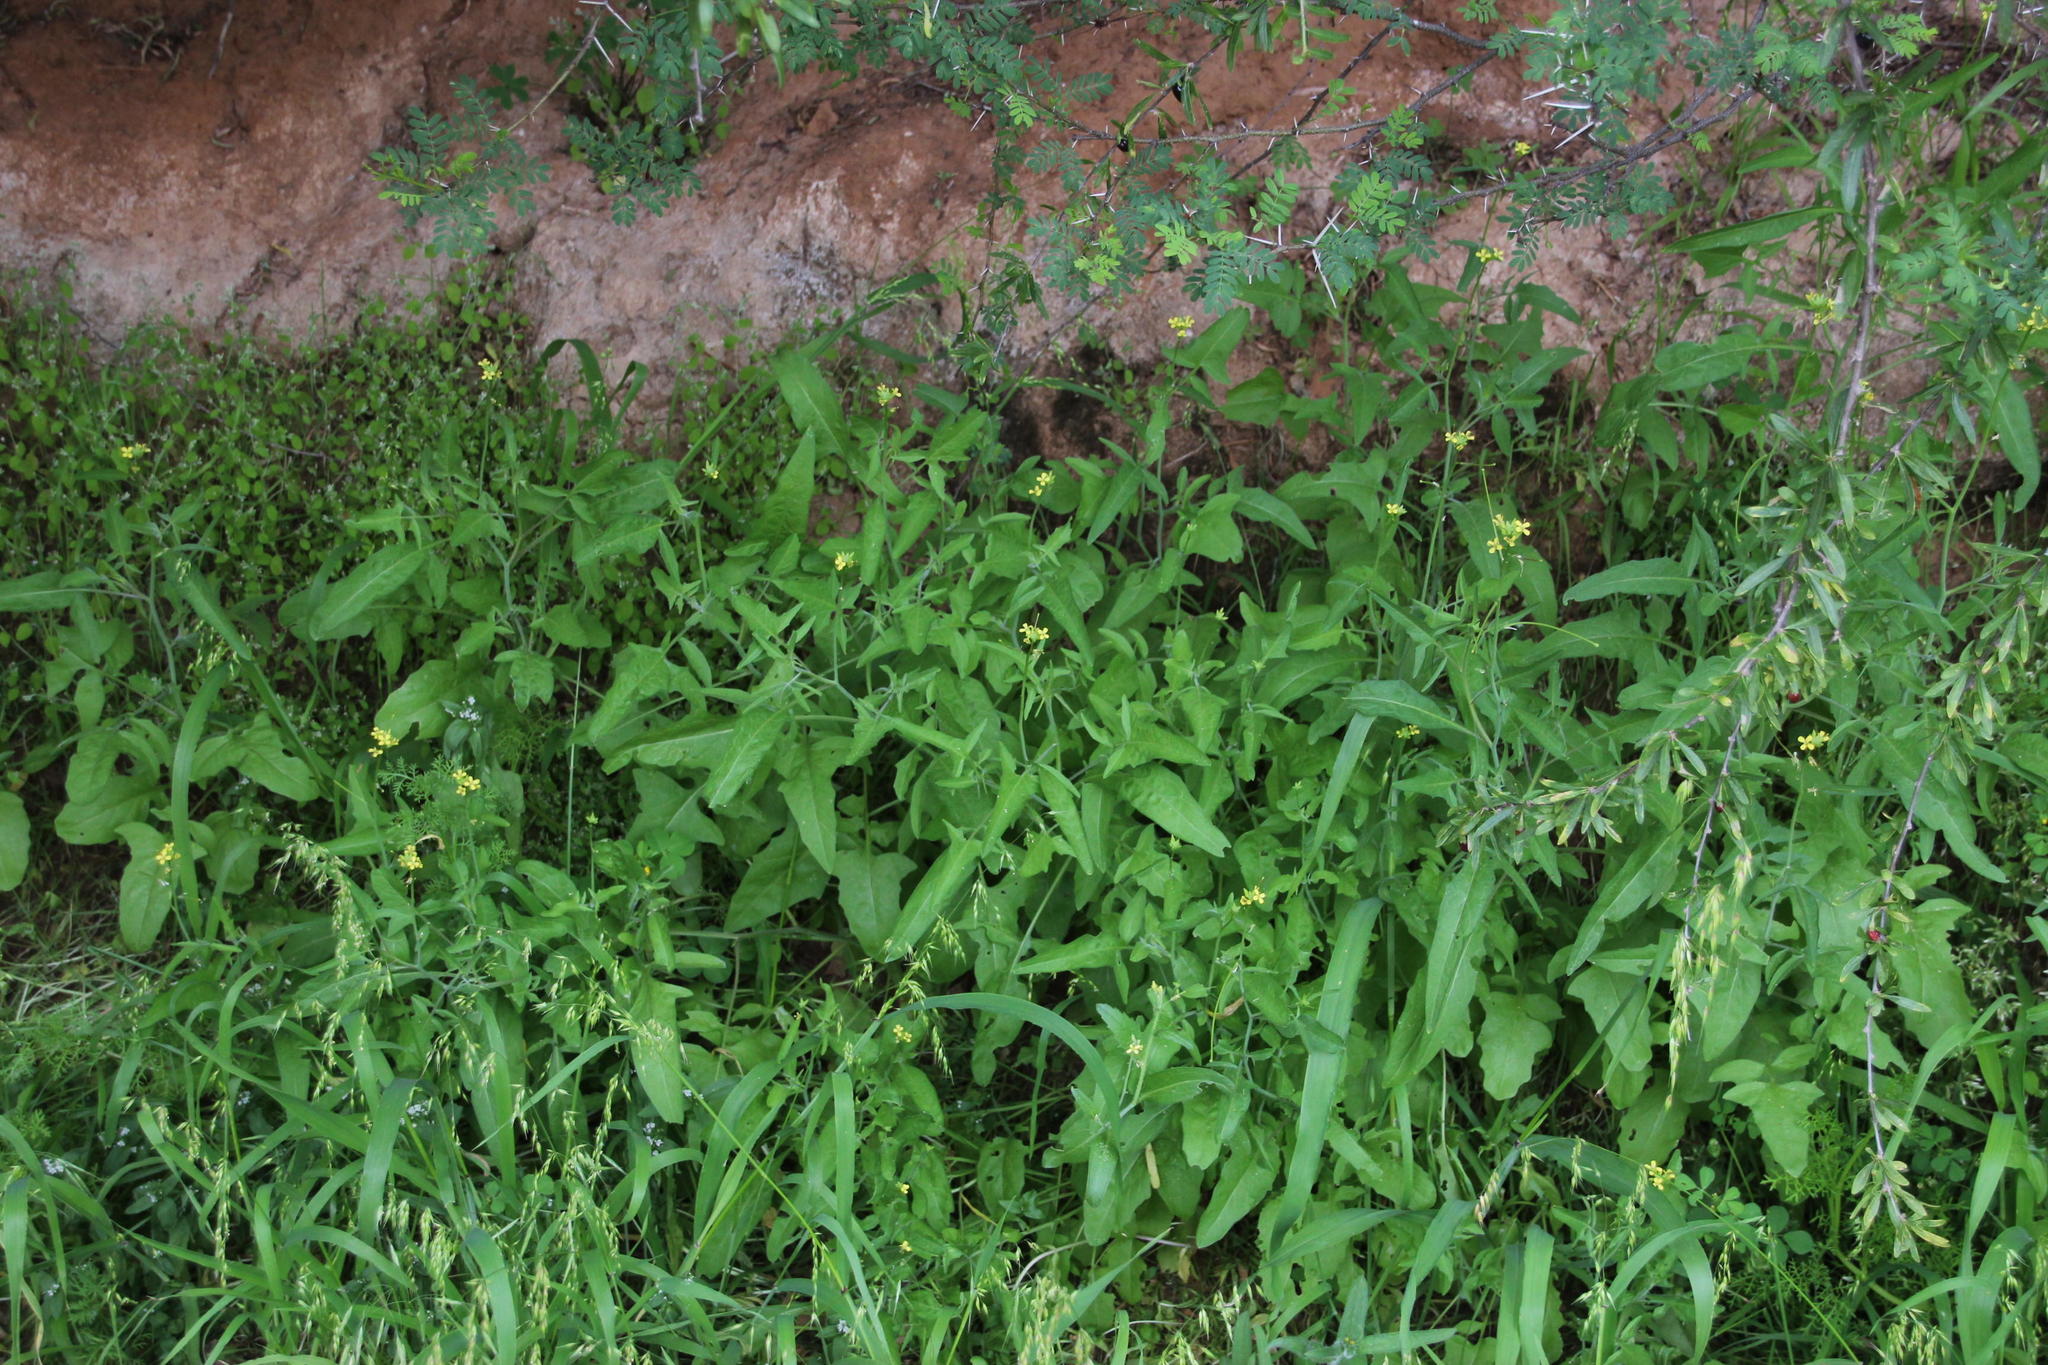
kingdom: Plantae
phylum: Tracheophyta
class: Magnoliopsida
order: Brassicales
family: Brassicaceae
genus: Sisymbrium
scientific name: Sisymbrium orientale
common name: Eastern rocket
